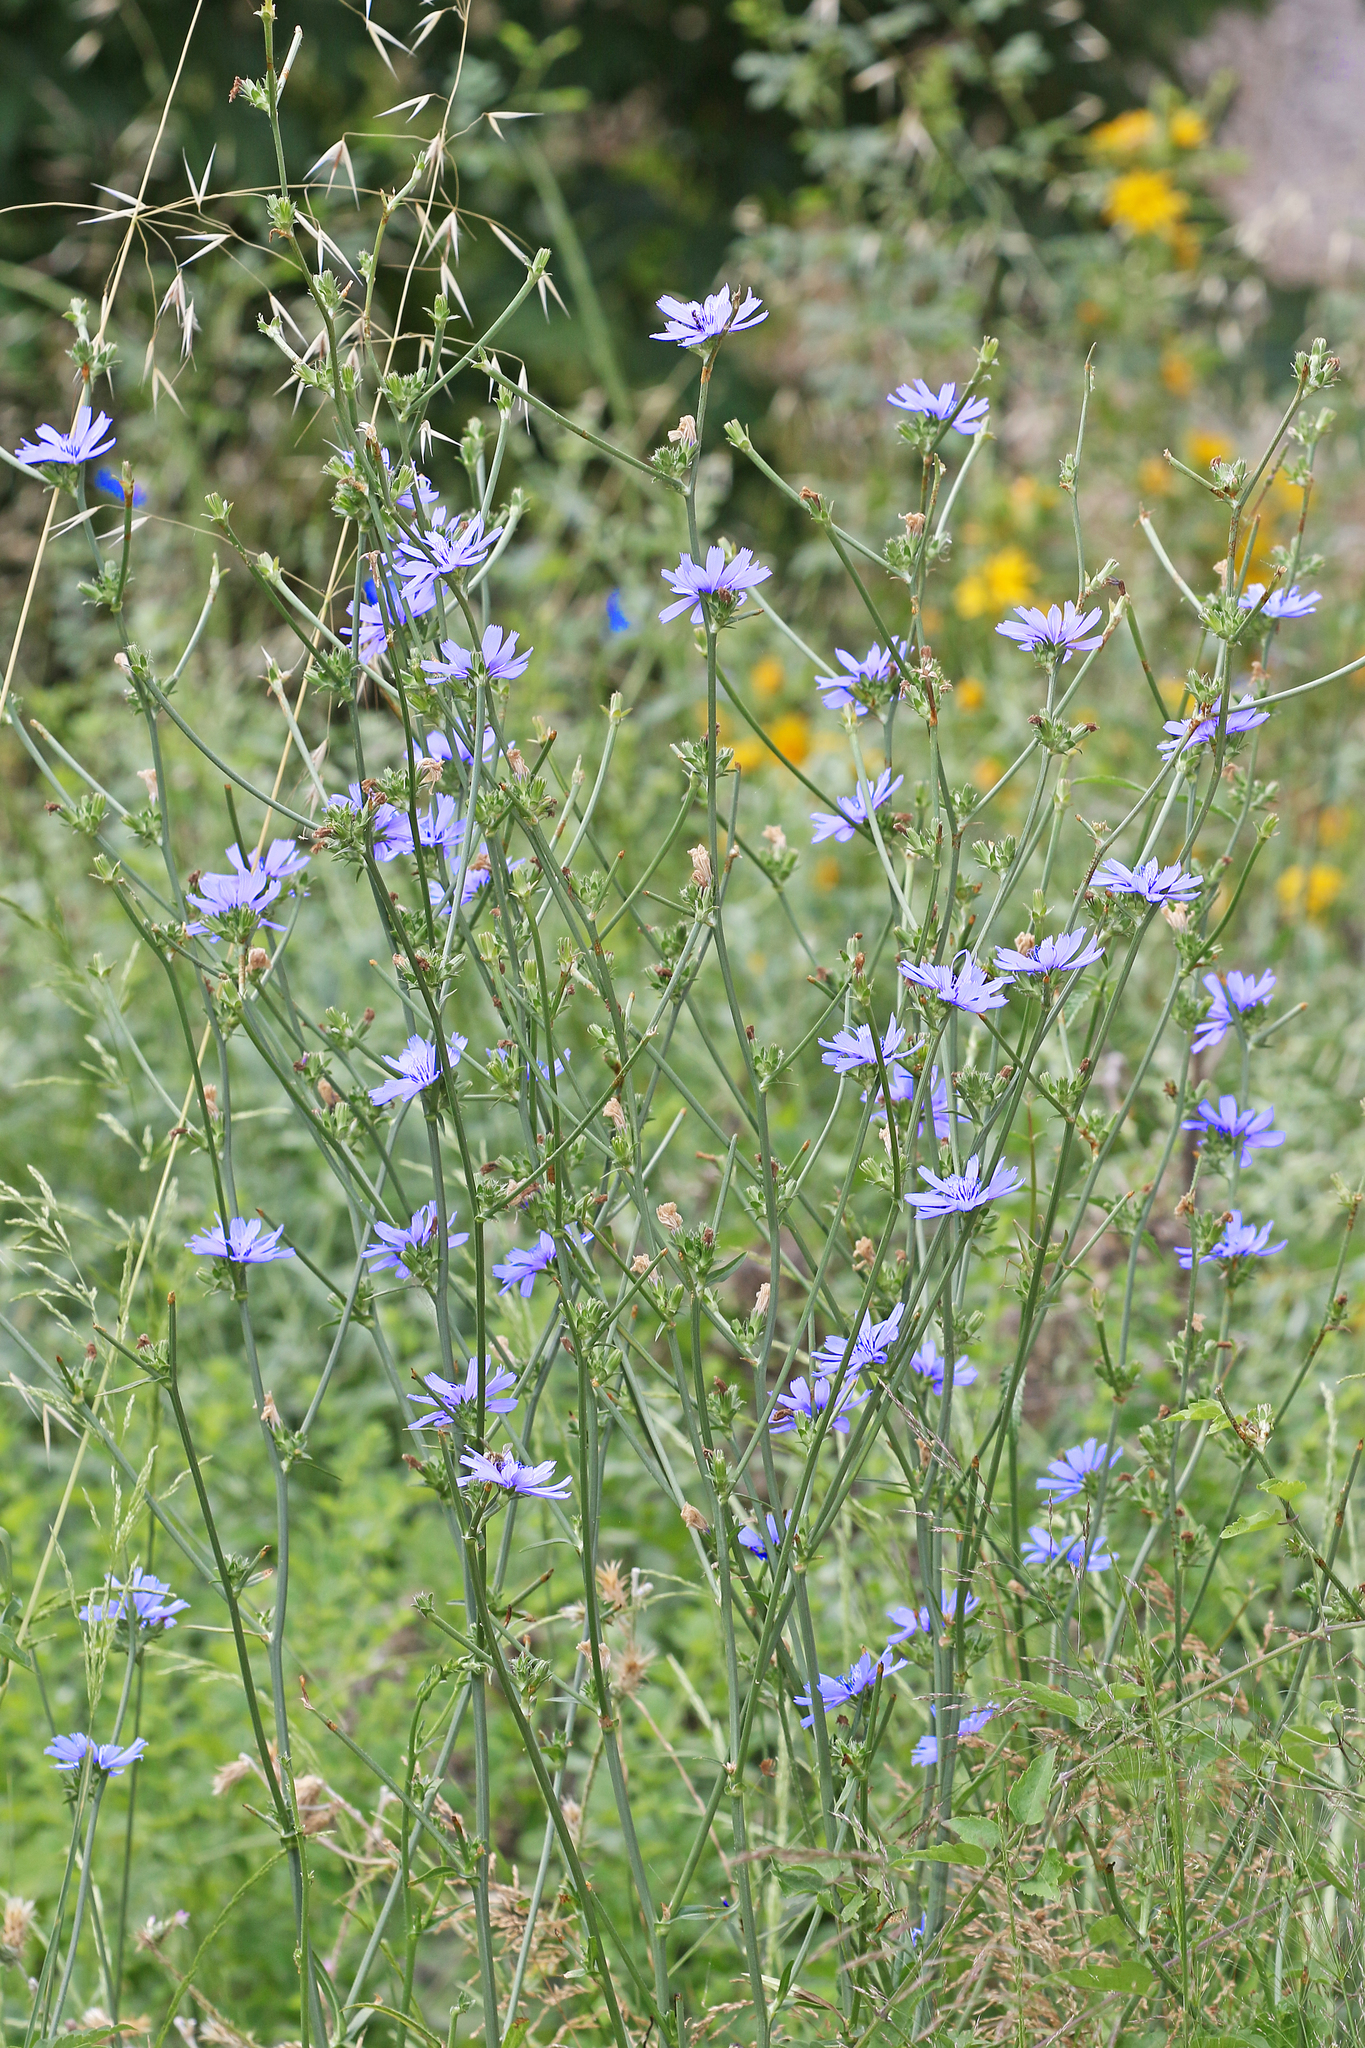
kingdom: Plantae
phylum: Tracheophyta
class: Magnoliopsida
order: Asterales
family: Asteraceae
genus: Cichorium
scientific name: Cichorium intybus
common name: Chicory
